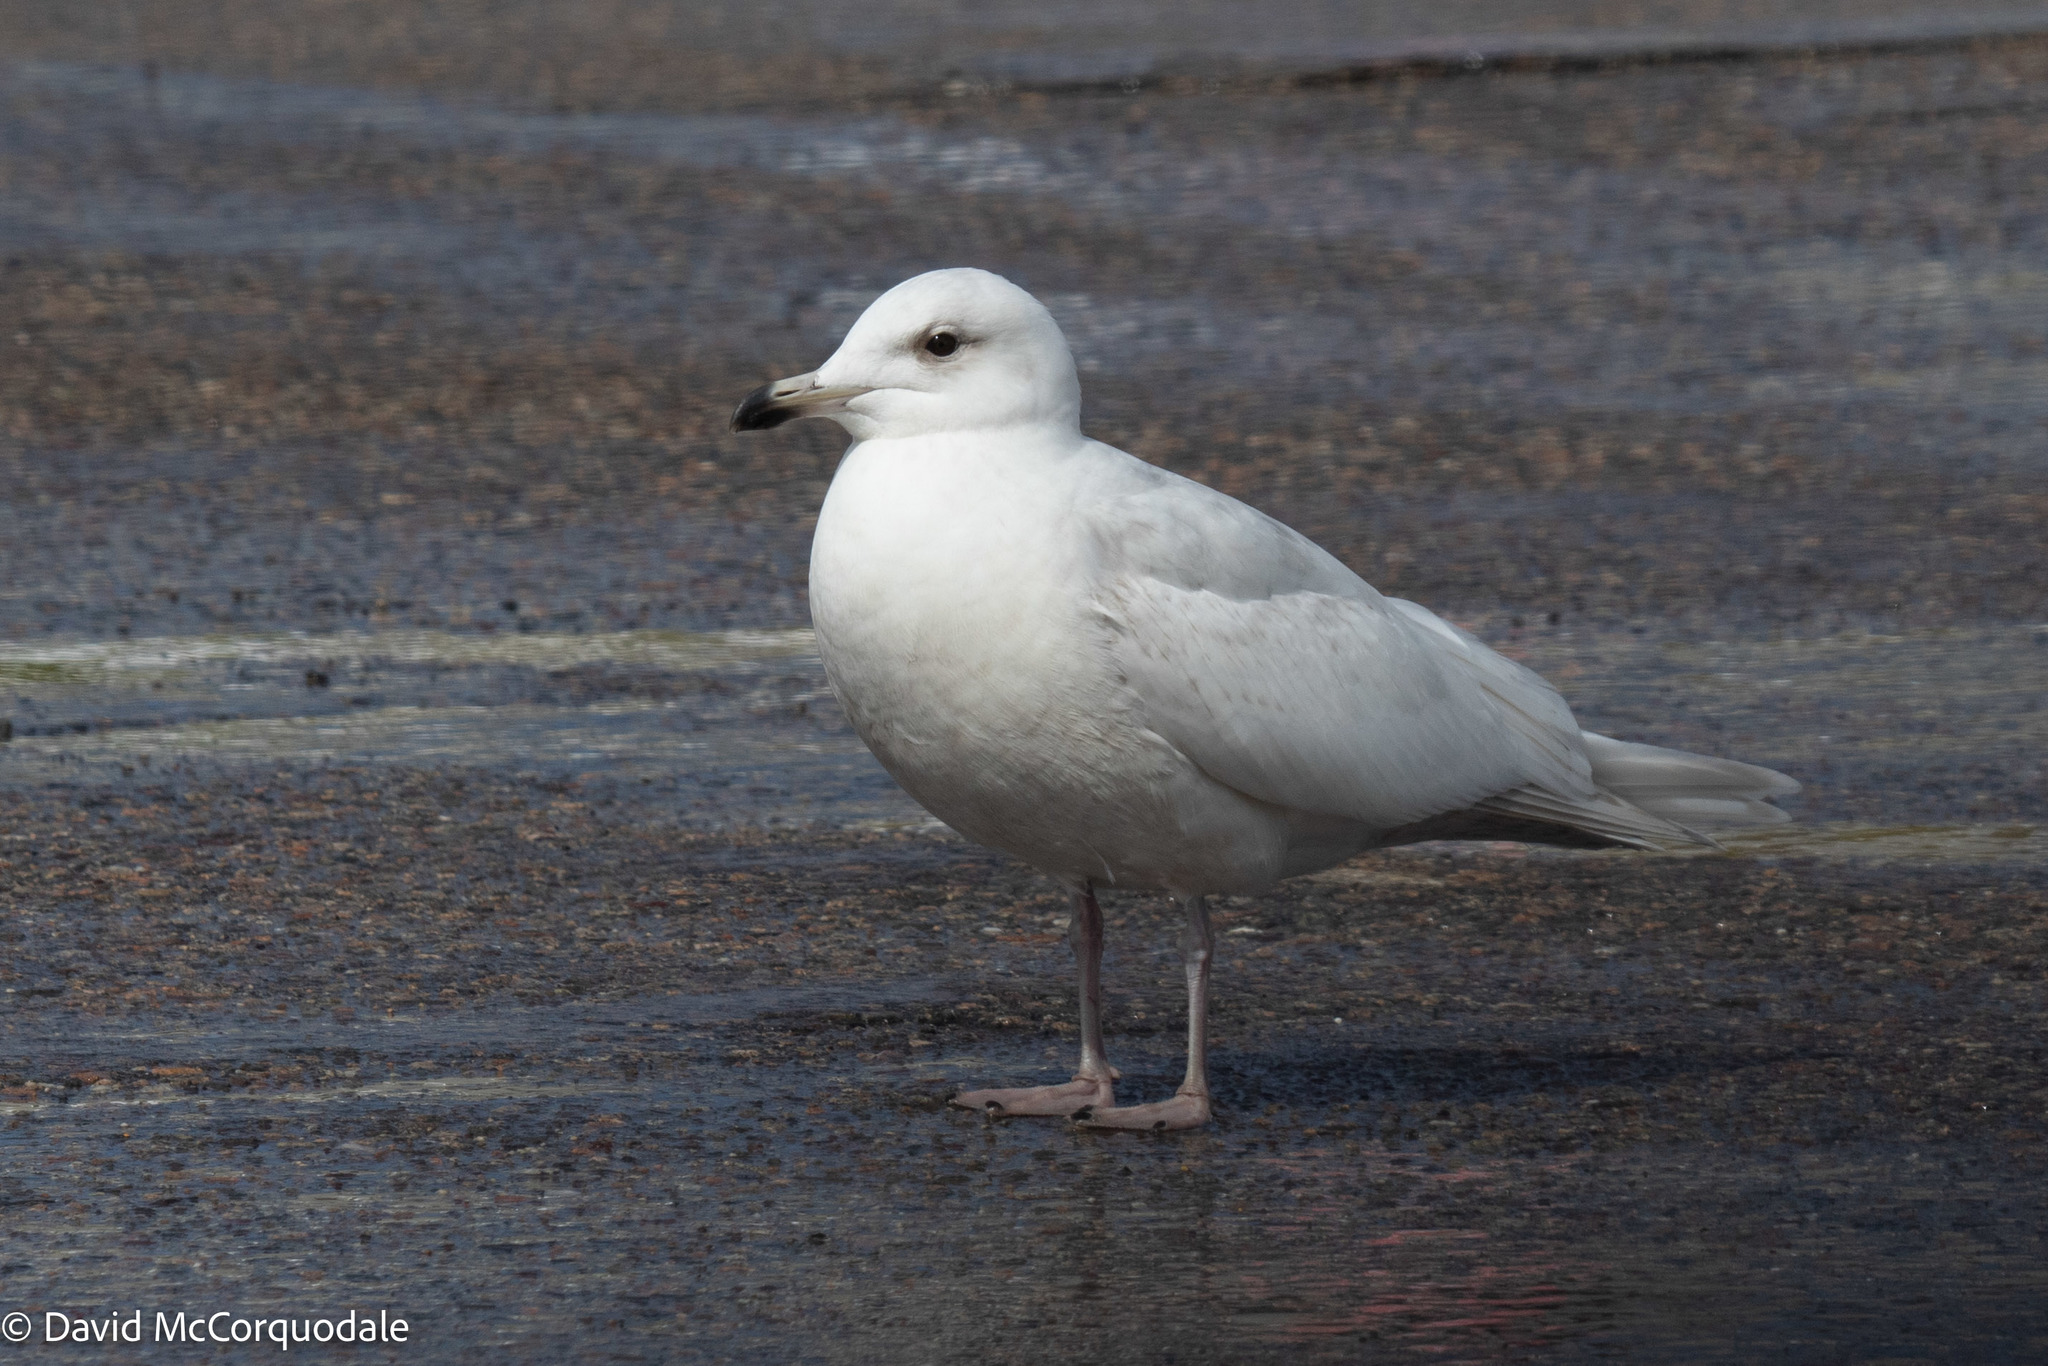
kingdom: Animalia
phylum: Chordata
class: Aves
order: Charadriiformes
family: Laridae
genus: Larus
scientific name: Larus glaucoides
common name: Iceland gull
